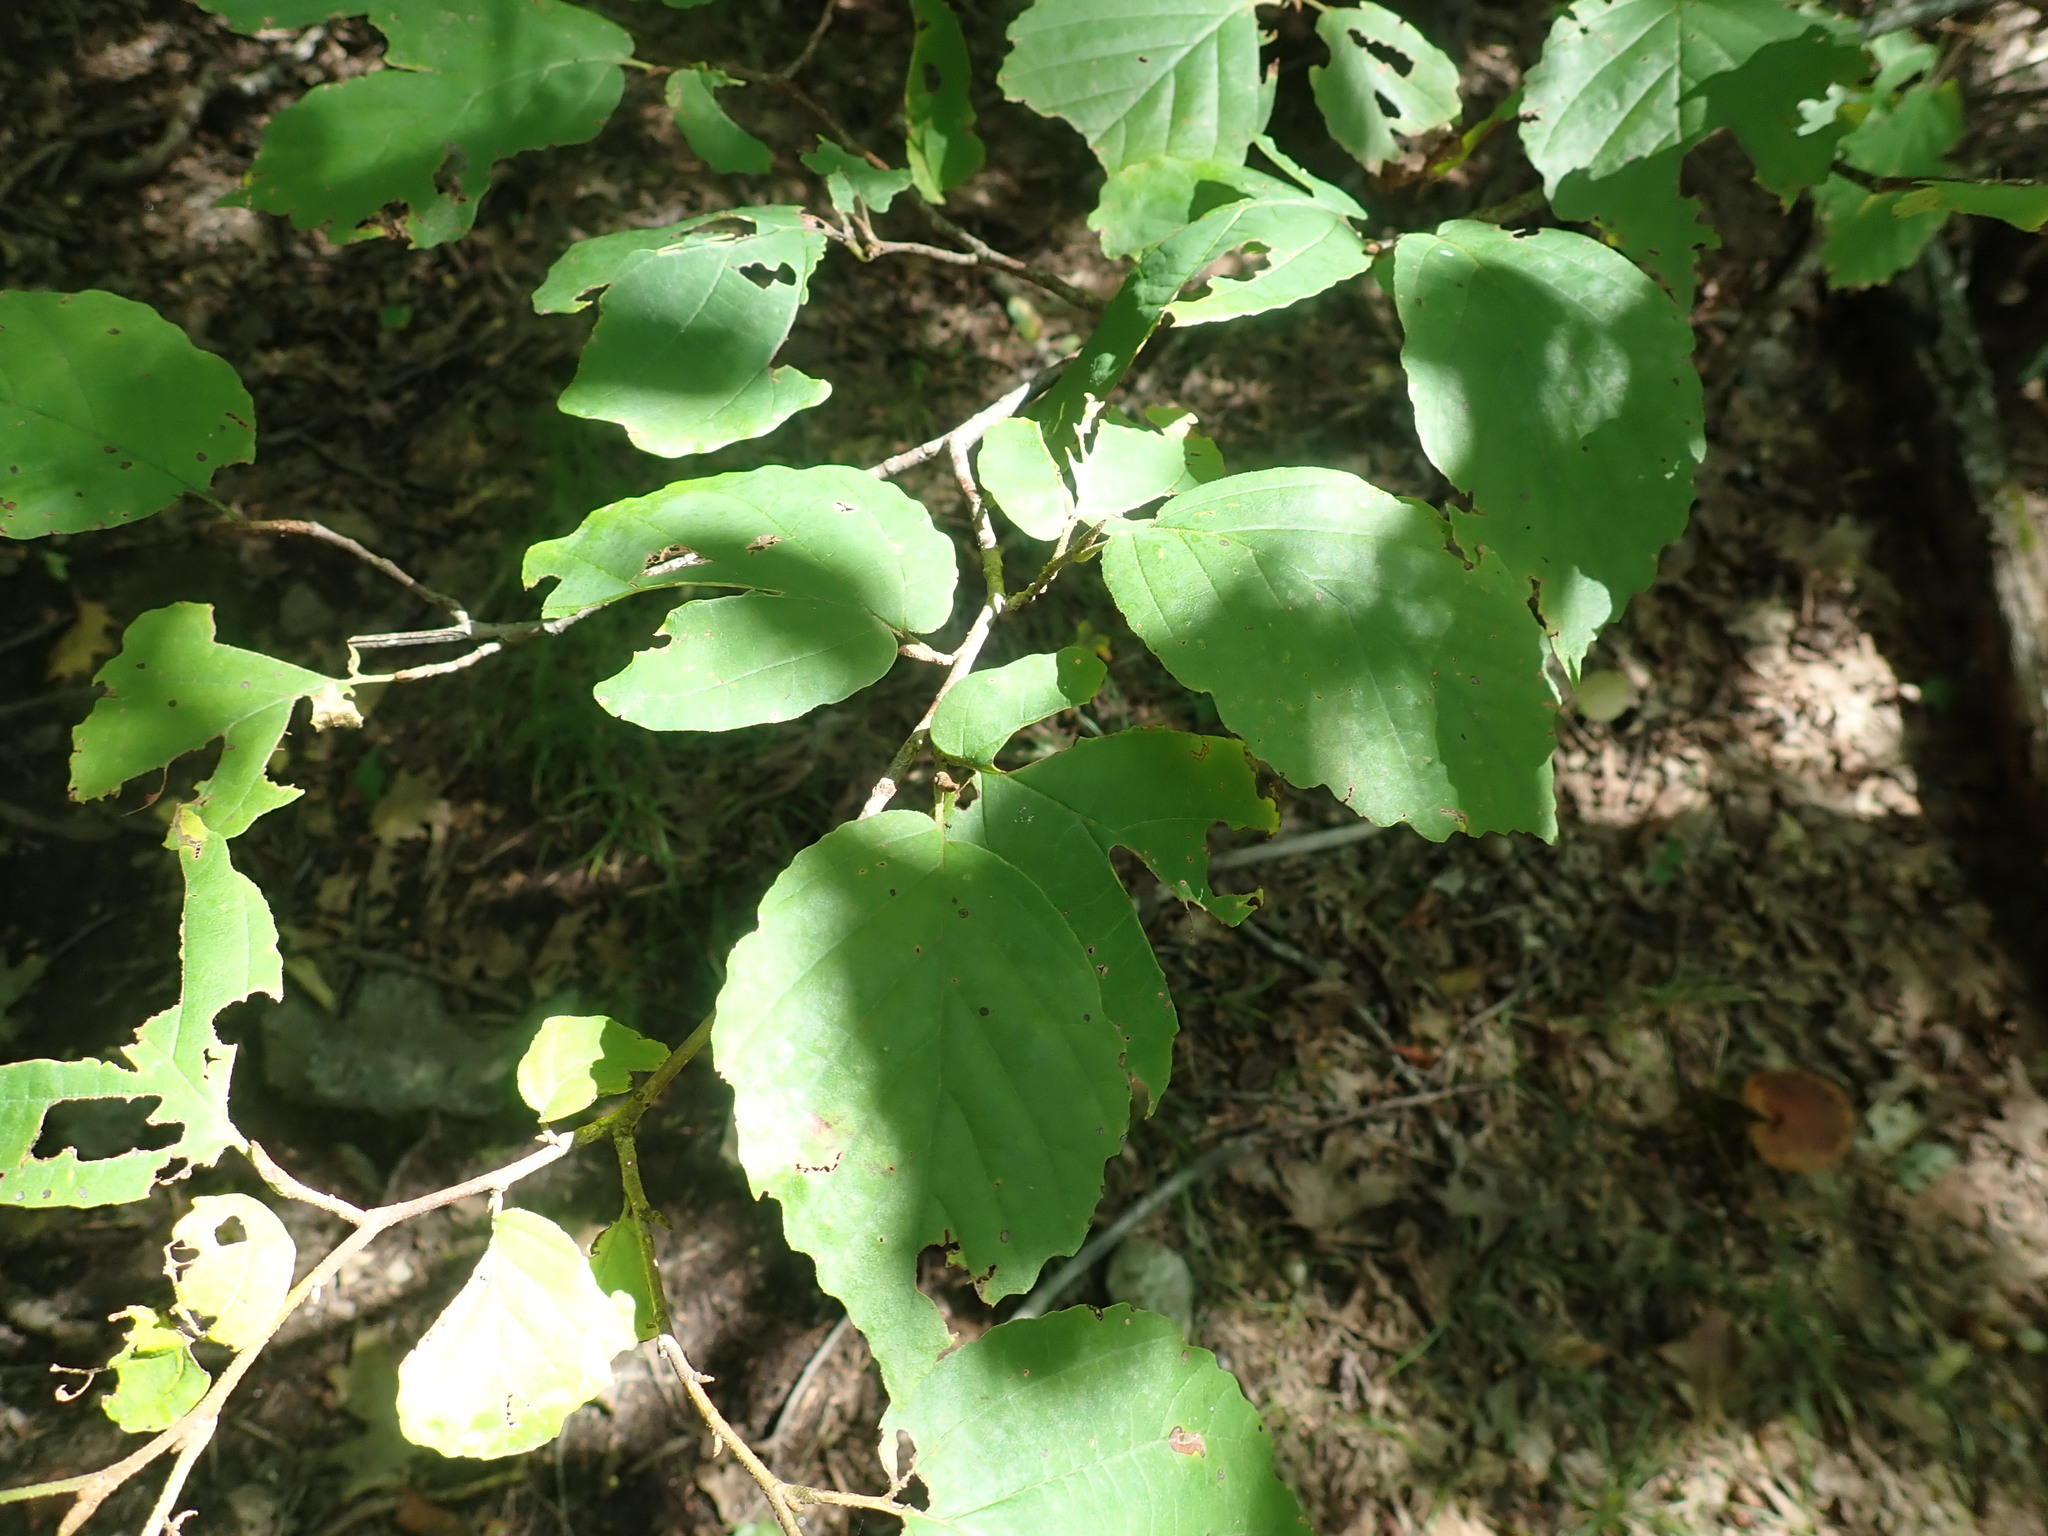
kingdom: Plantae
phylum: Tracheophyta
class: Magnoliopsida
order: Saxifragales
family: Hamamelidaceae
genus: Hamamelis
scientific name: Hamamelis virginiana
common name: Witch-hazel
